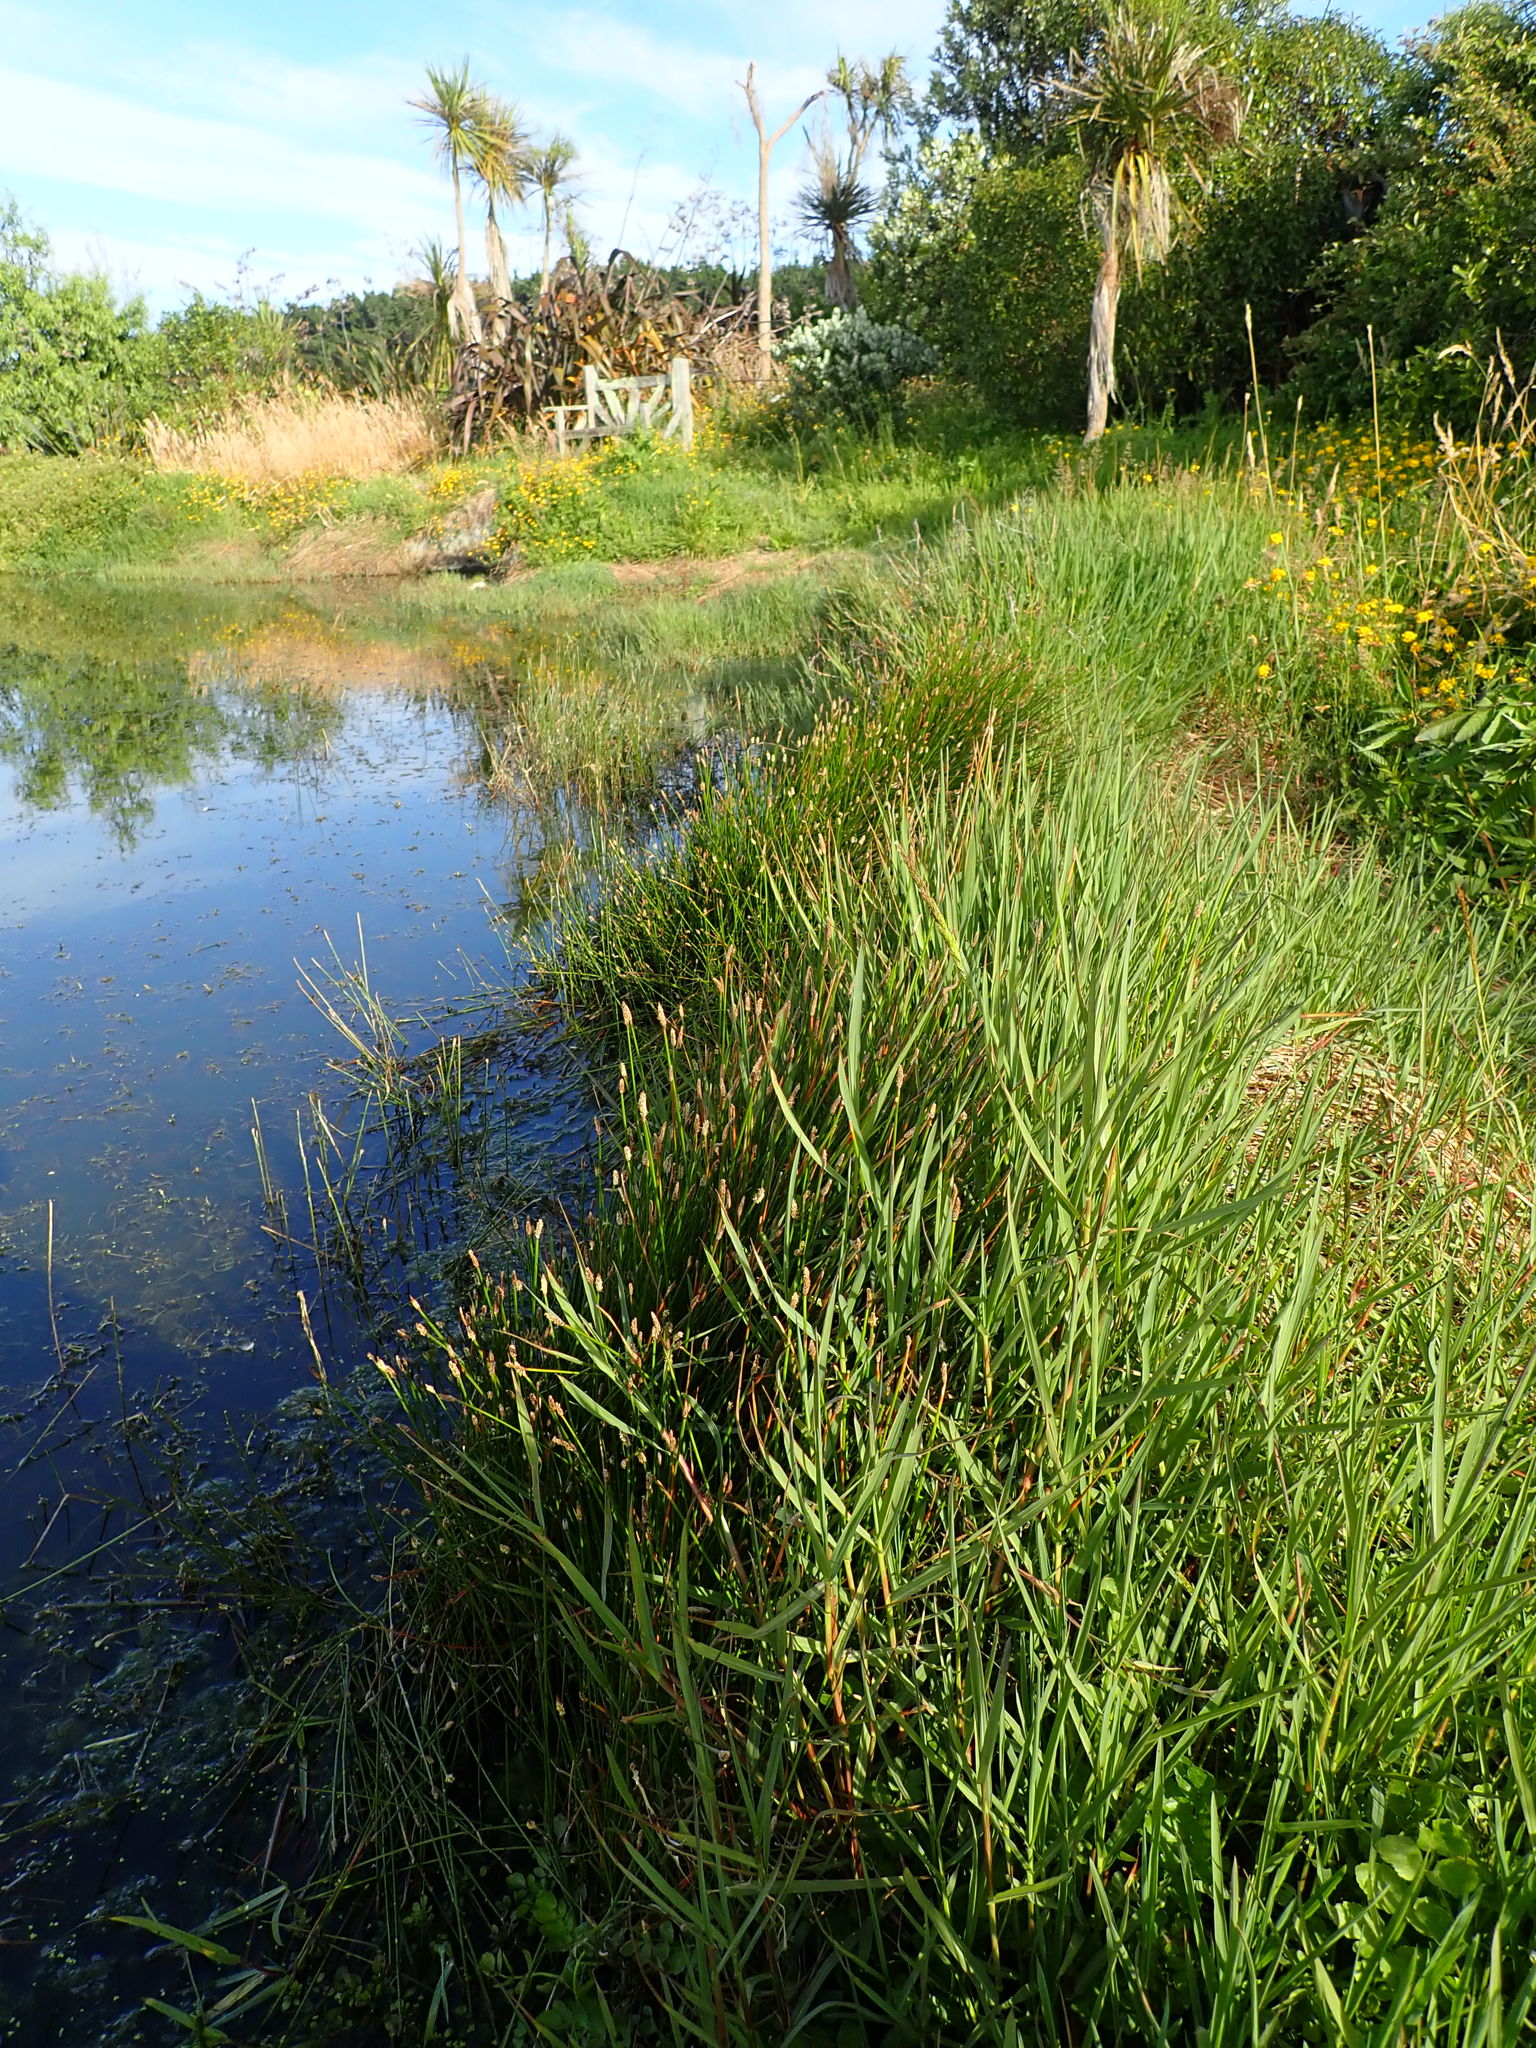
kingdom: Plantae
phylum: Tracheophyta
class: Liliopsida
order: Poales
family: Cyperaceae
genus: Eleocharis
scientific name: Eleocharis acuta
